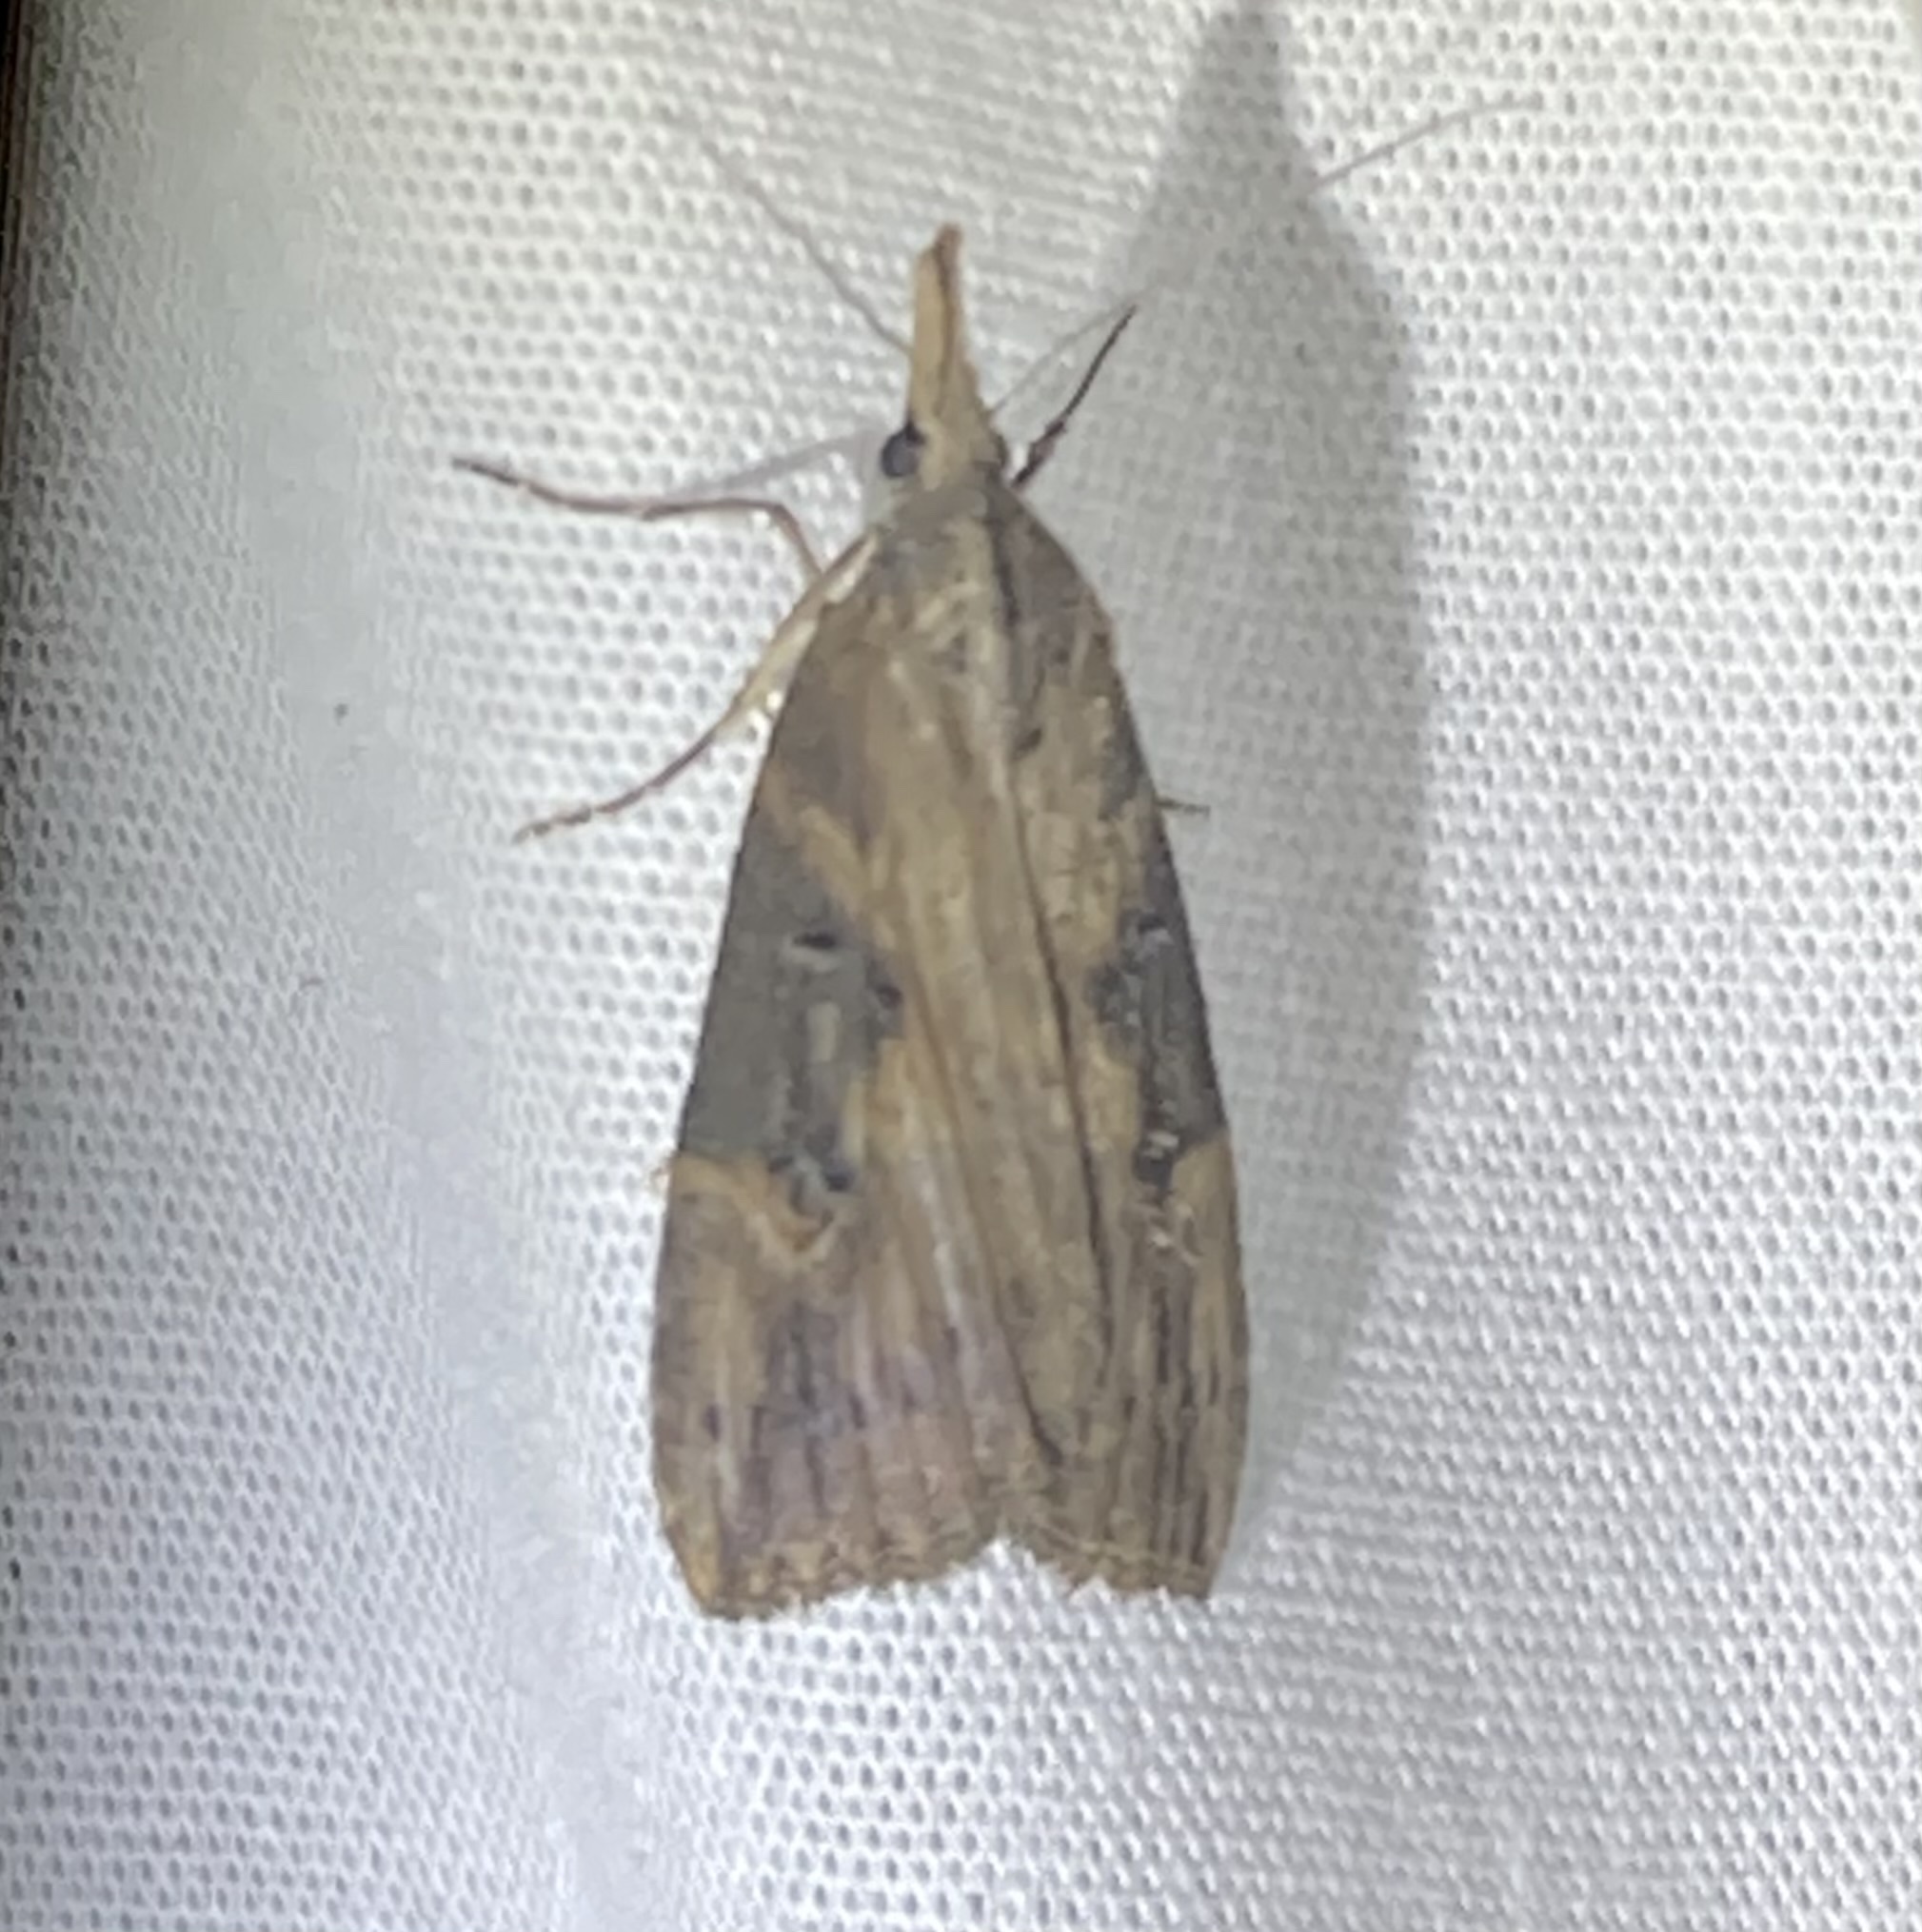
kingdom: Animalia
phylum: Arthropoda
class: Insecta
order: Lepidoptera
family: Erebidae
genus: Hypena
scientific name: Hypena humuli
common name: Hop vine snout
